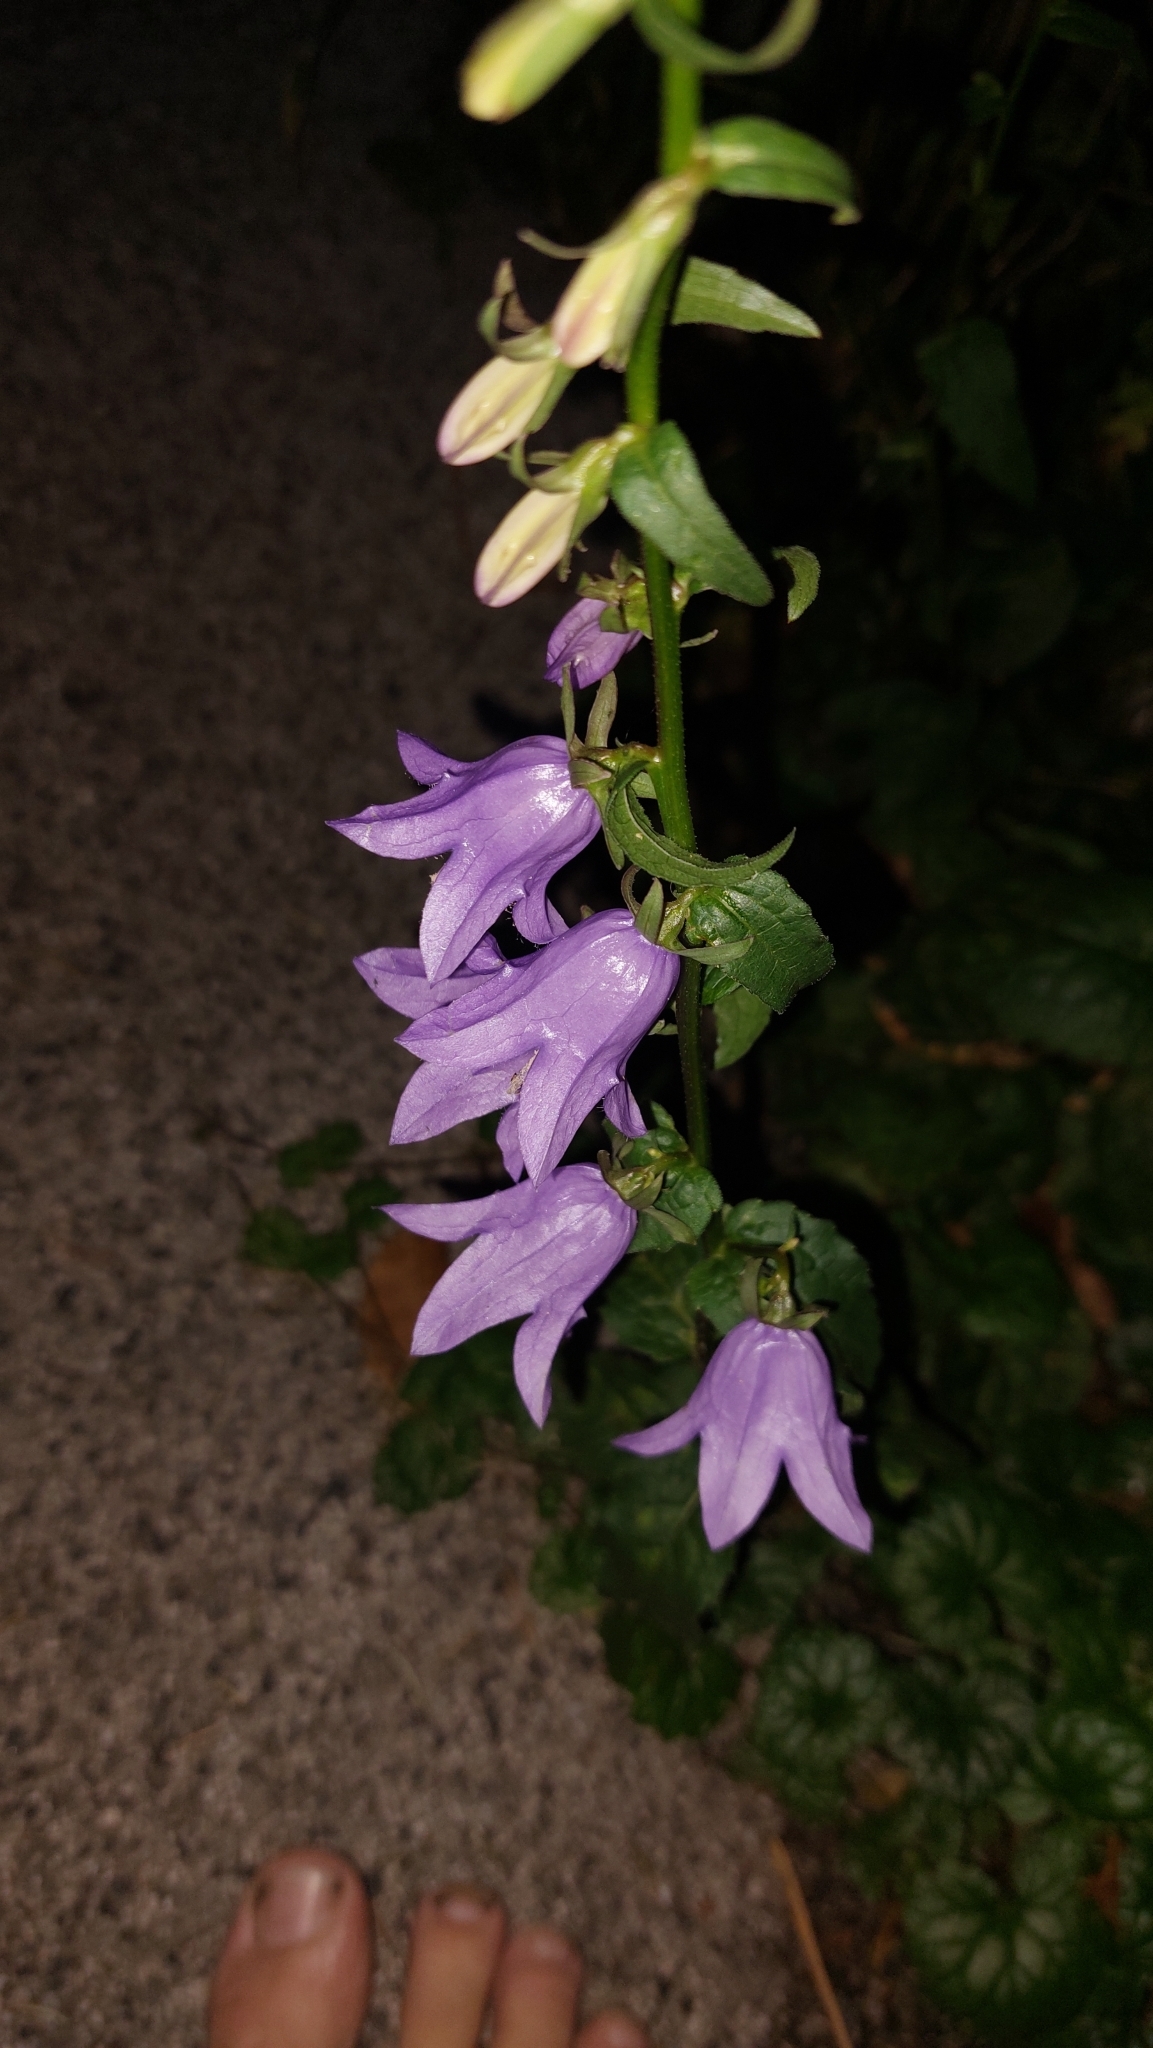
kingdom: Plantae
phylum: Tracheophyta
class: Magnoliopsida
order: Asterales
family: Campanulaceae
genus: Campanula
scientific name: Campanula rapunculoides
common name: Creeping bellflower
